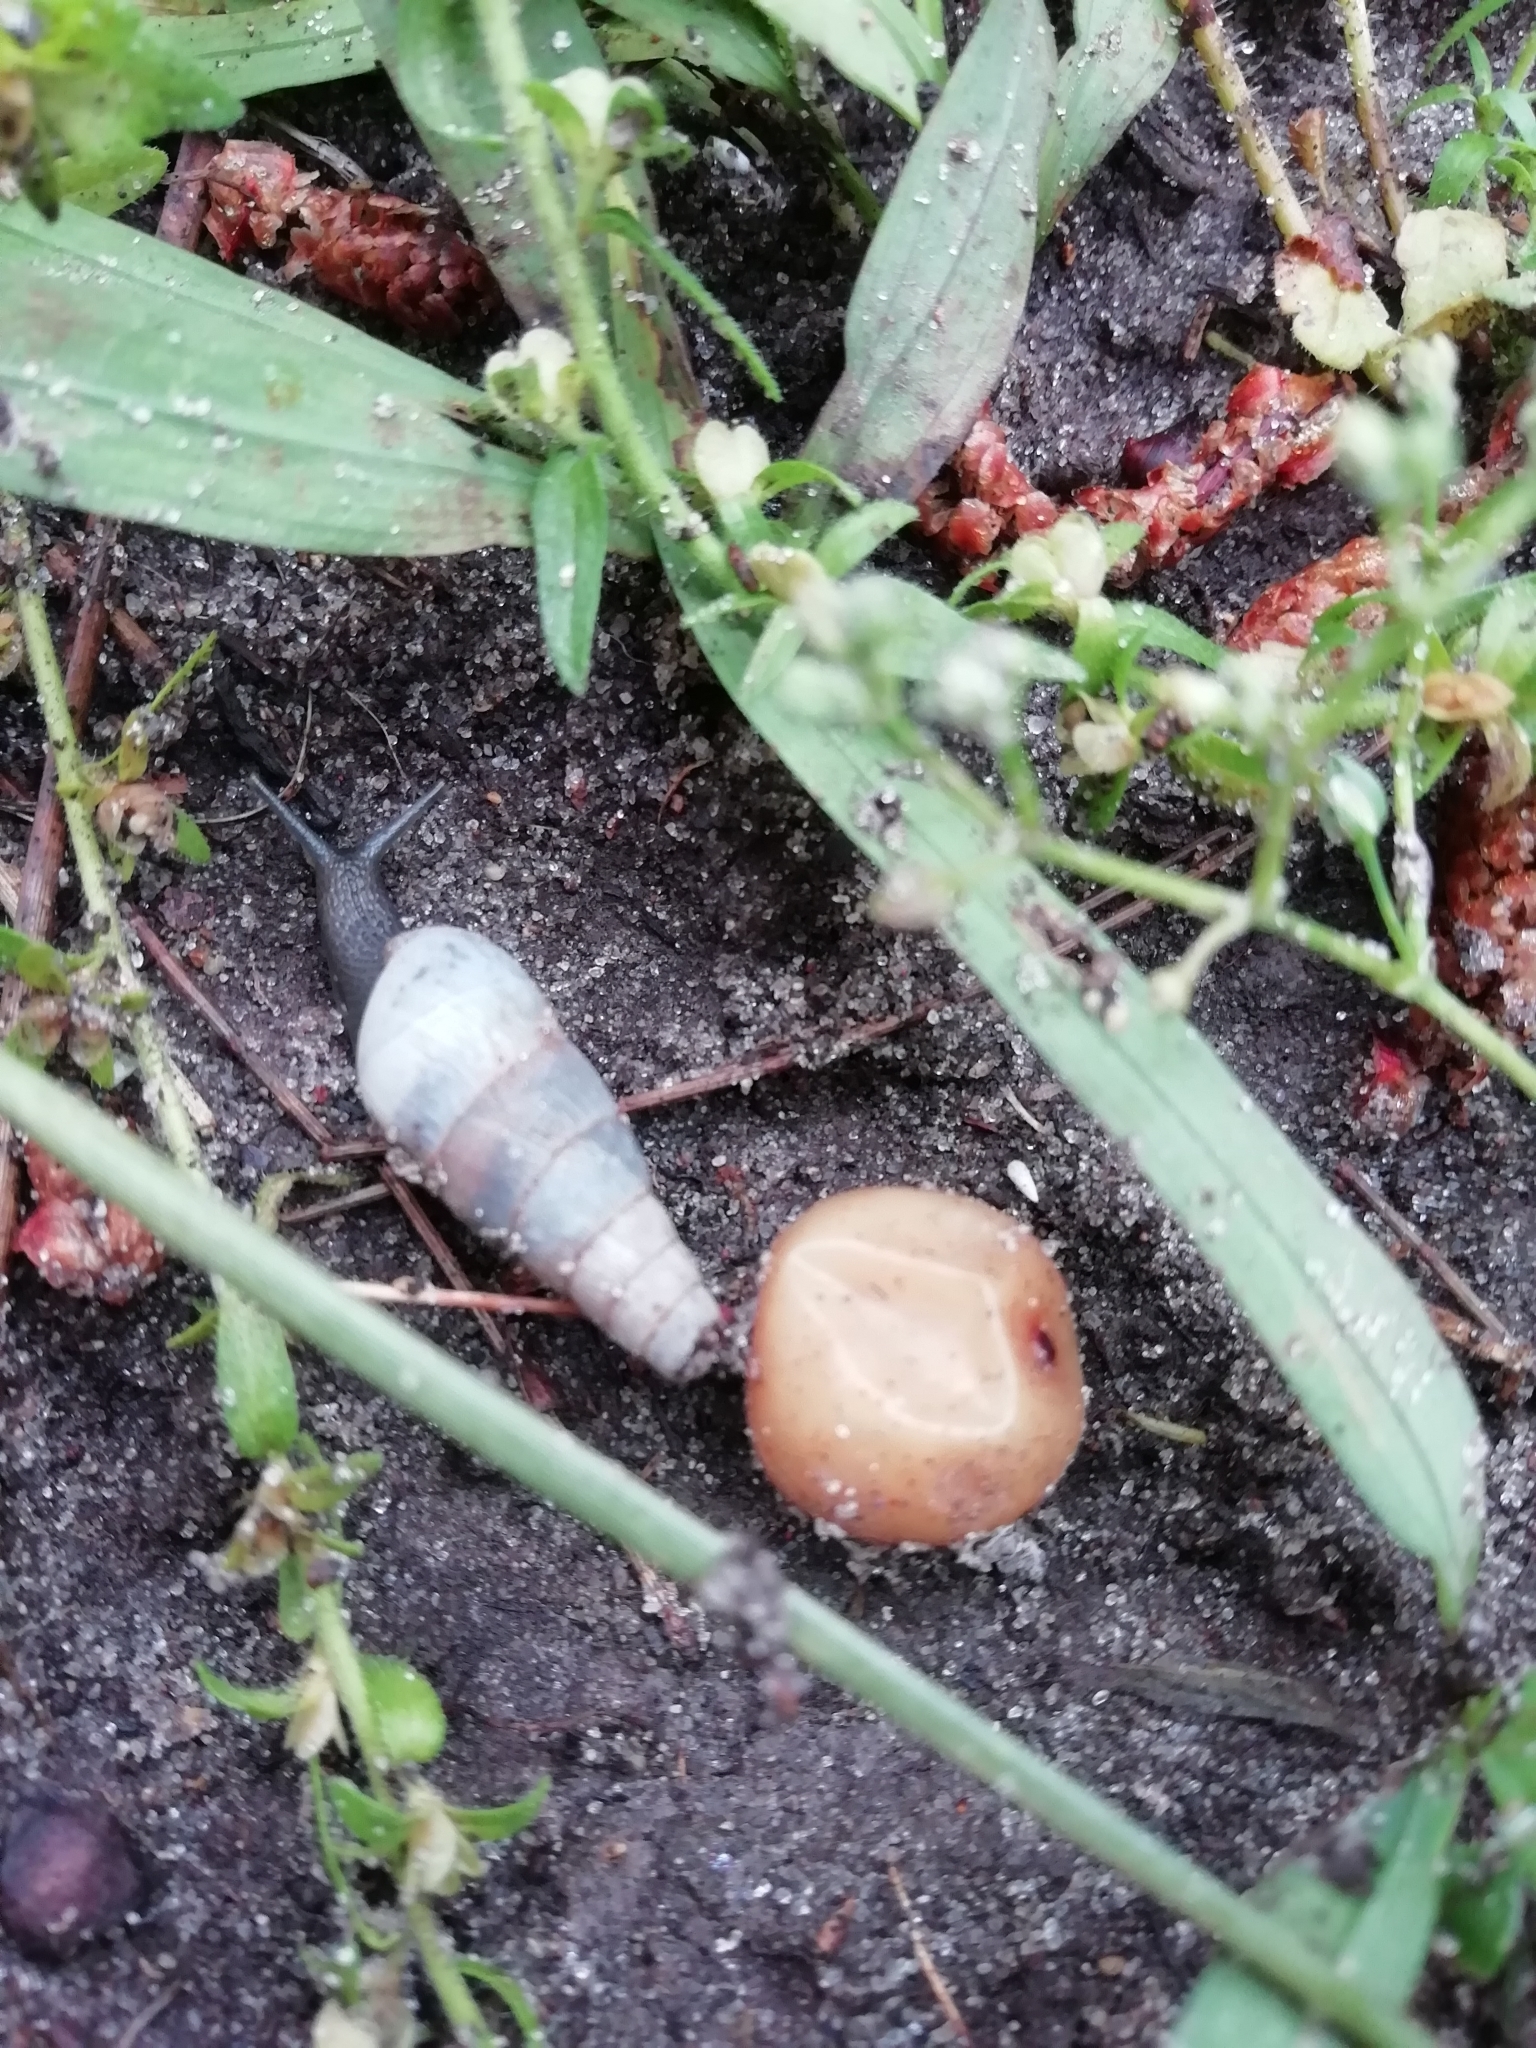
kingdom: Animalia
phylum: Mollusca
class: Gastropoda
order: Stylommatophora
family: Achatinidae
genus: Rumina
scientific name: Rumina decollata
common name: Decollate snail
